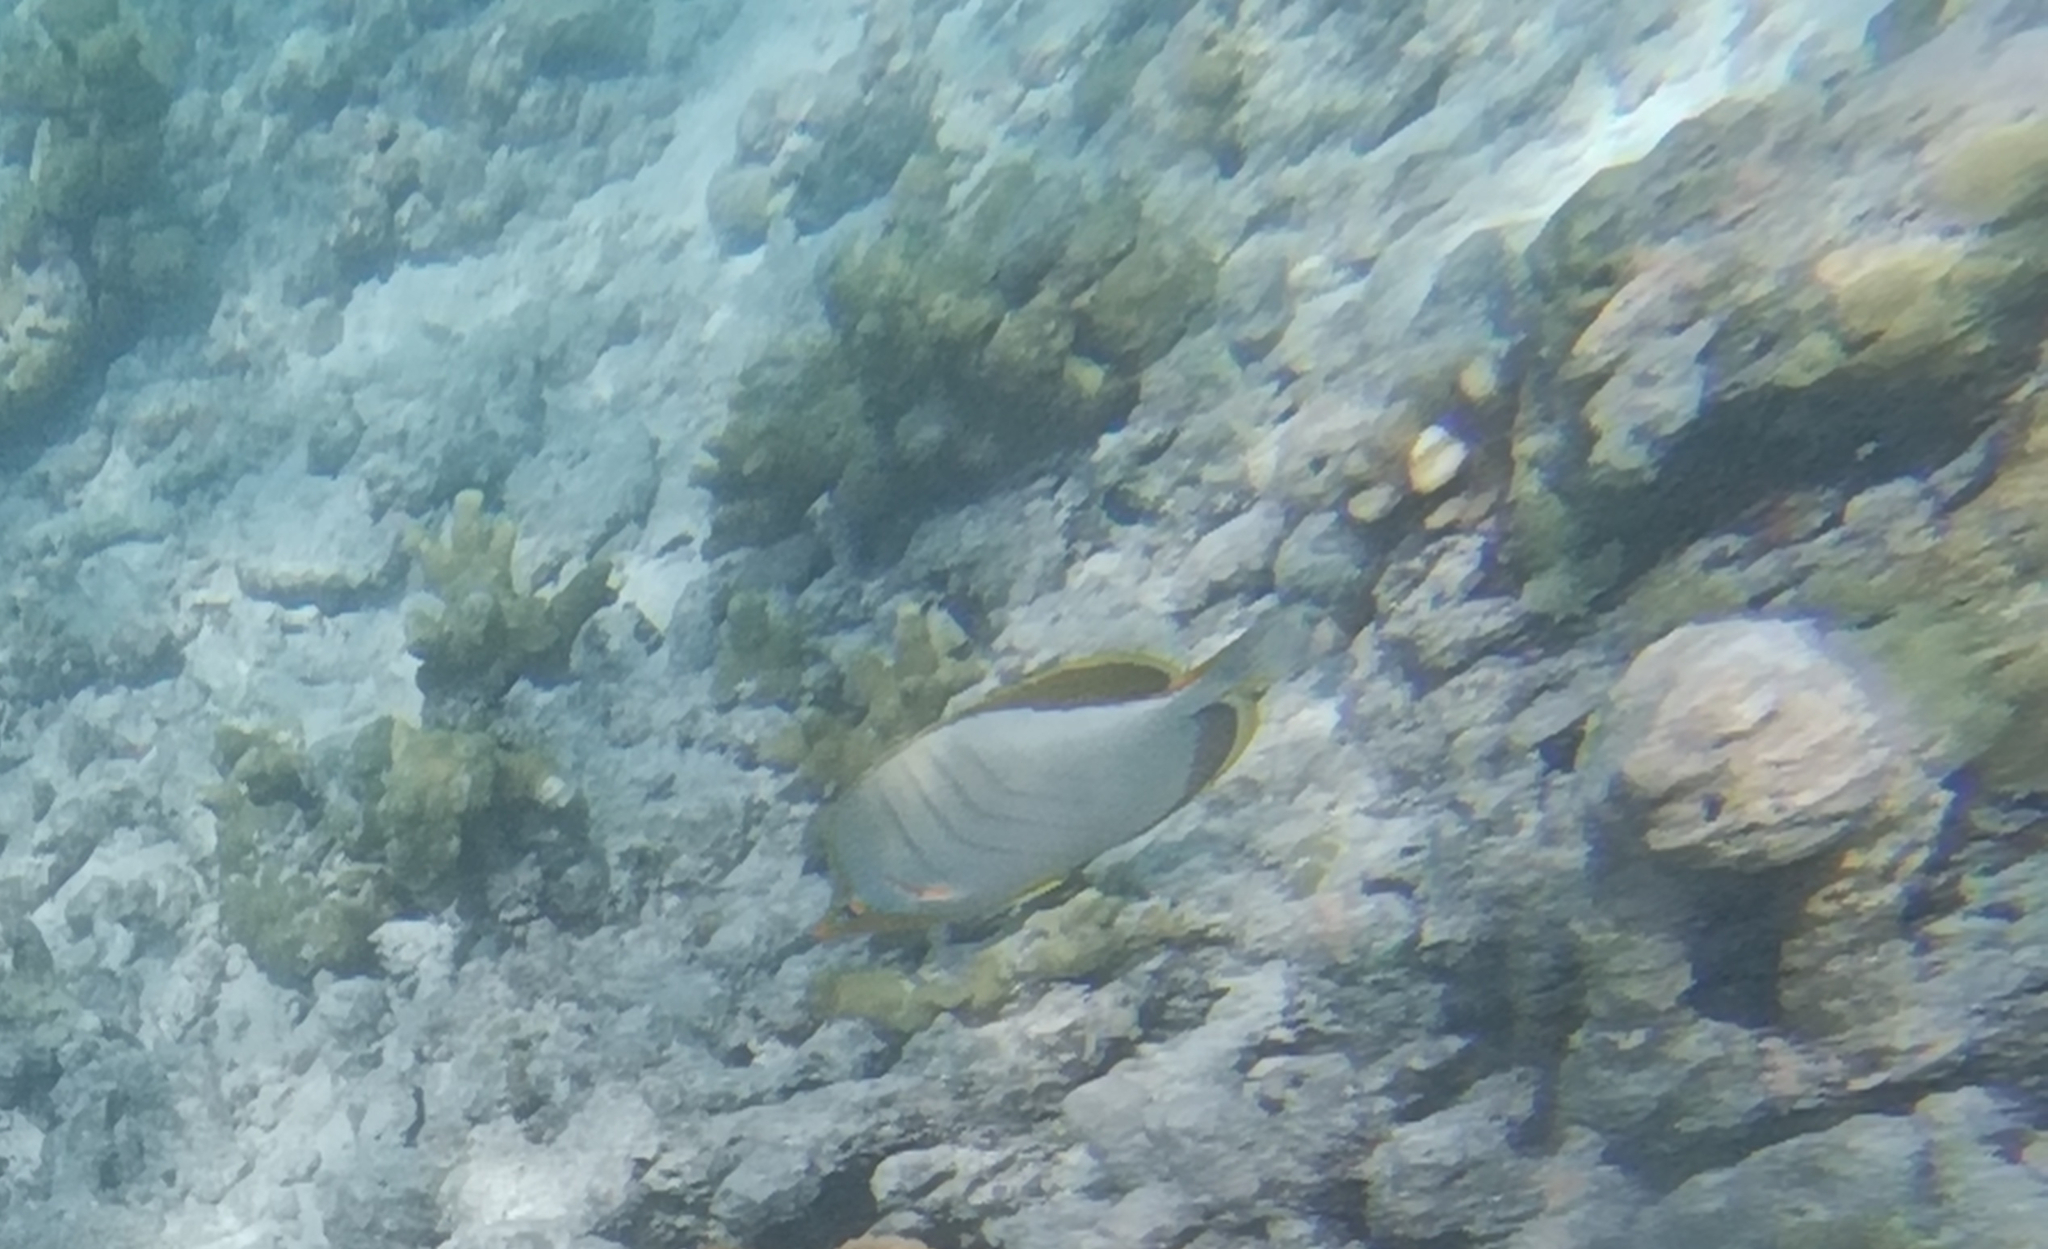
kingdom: Animalia
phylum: Chordata
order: Perciformes
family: Chaetodontidae
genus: Chaetodon
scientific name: Chaetodon xanthocephalus
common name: Yellowhead butterflyfish
